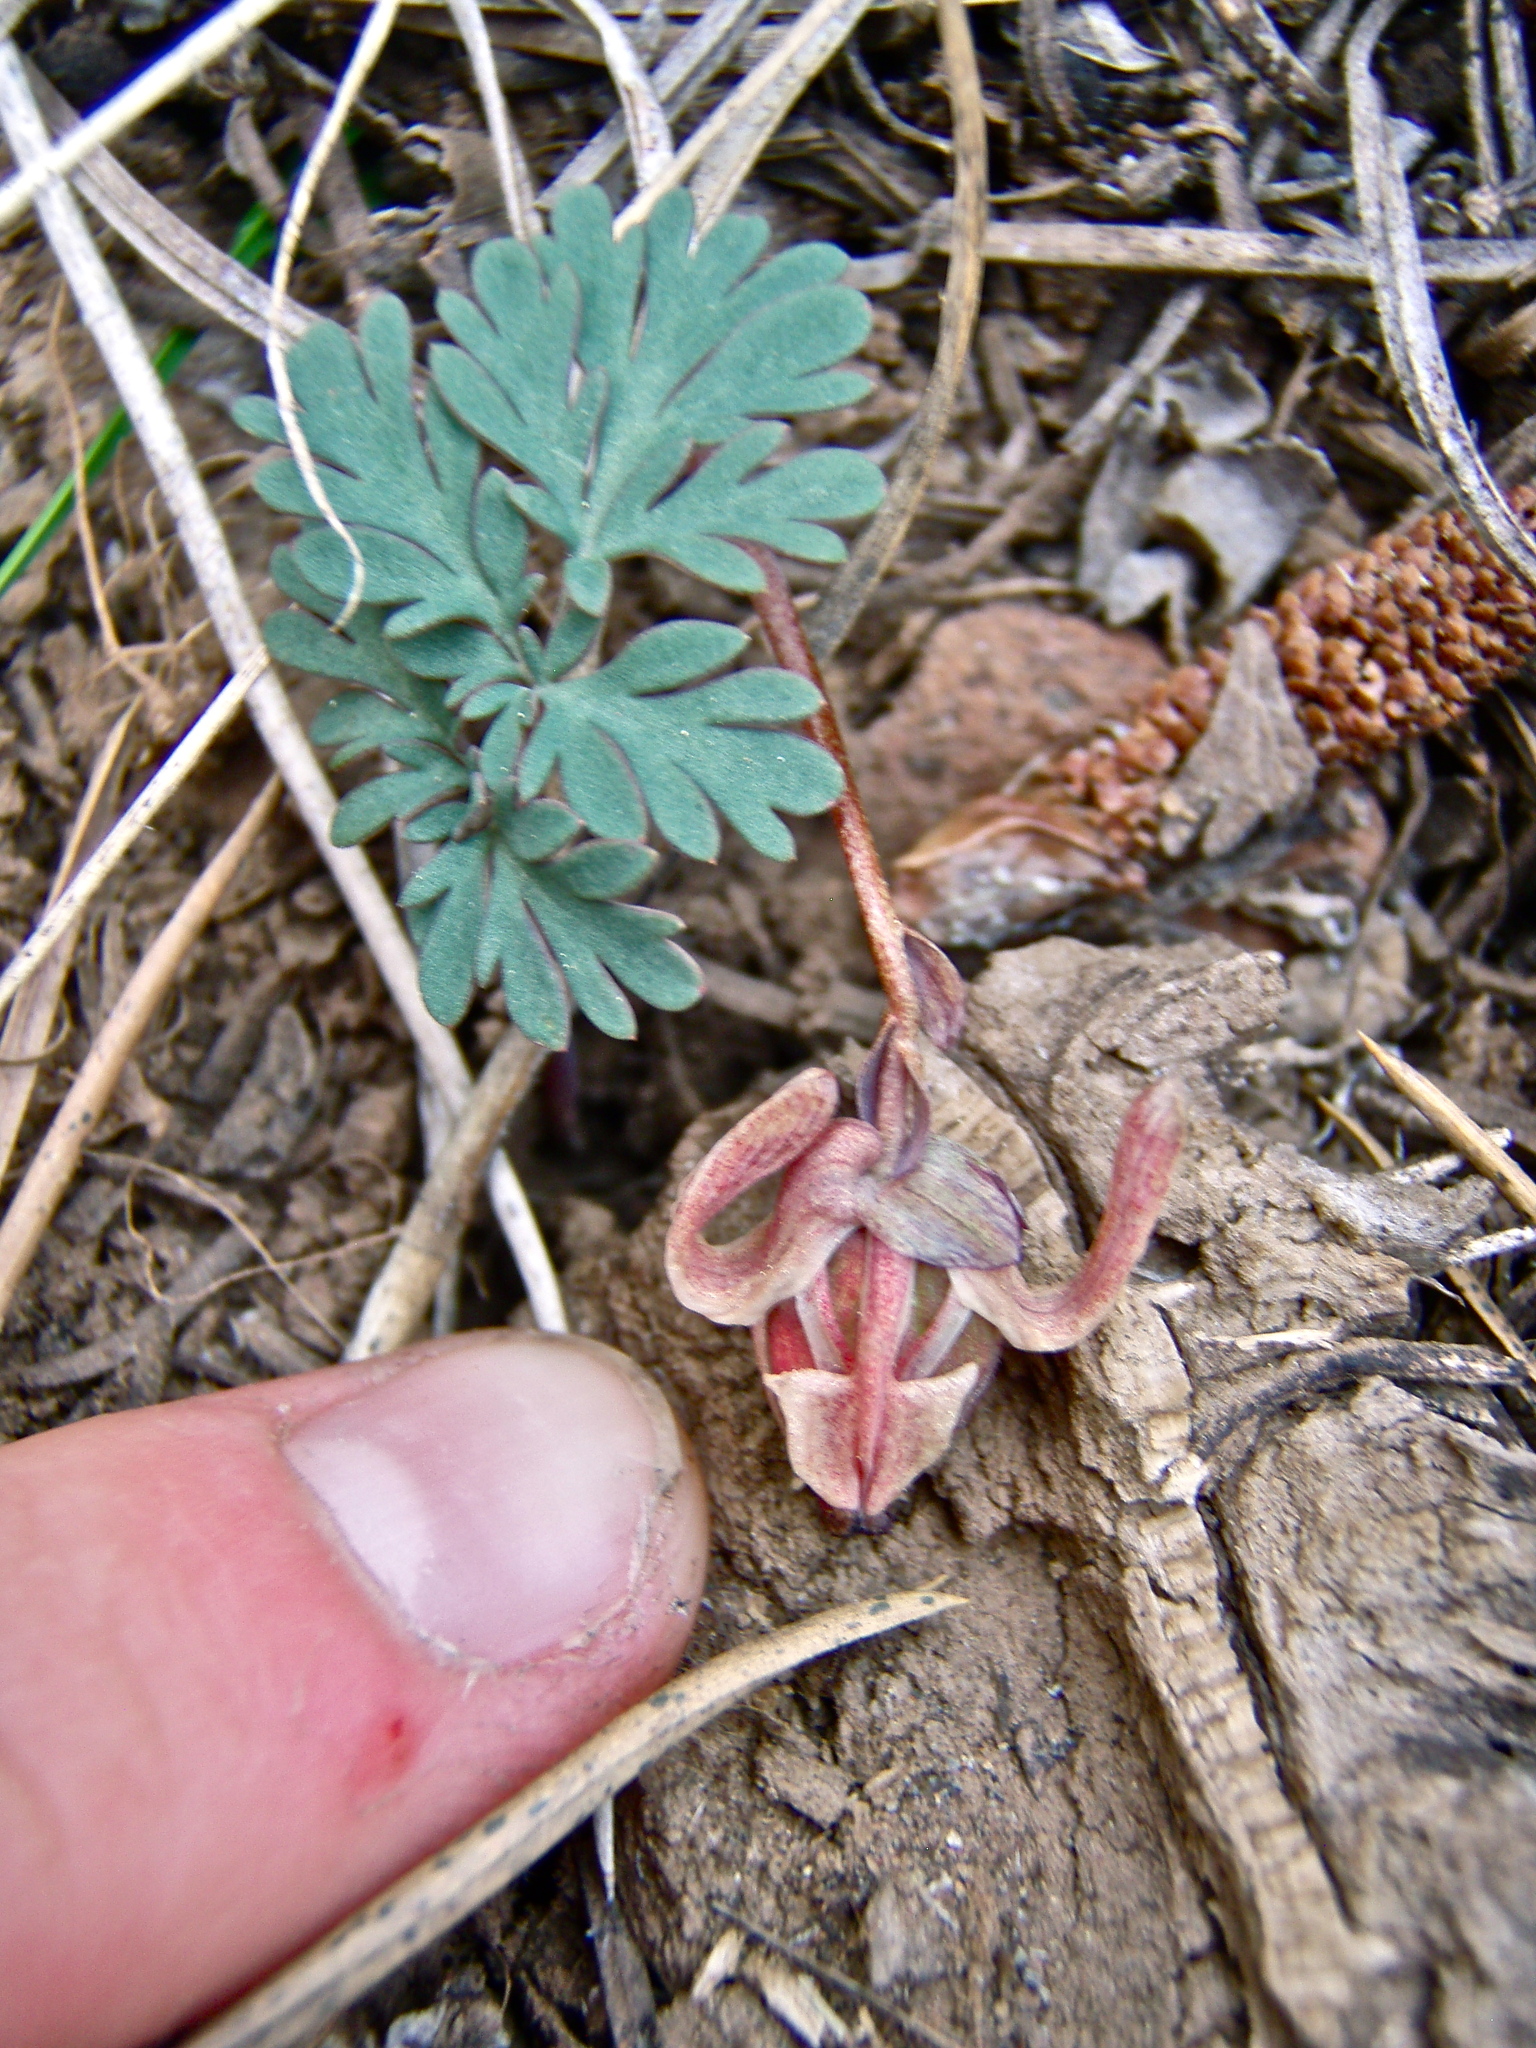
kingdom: Plantae
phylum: Tracheophyta
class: Magnoliopsida
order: Ranunculales
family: Papaveraceae
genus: Dicentra
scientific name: Dicentra uniflora
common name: Steer's-head
